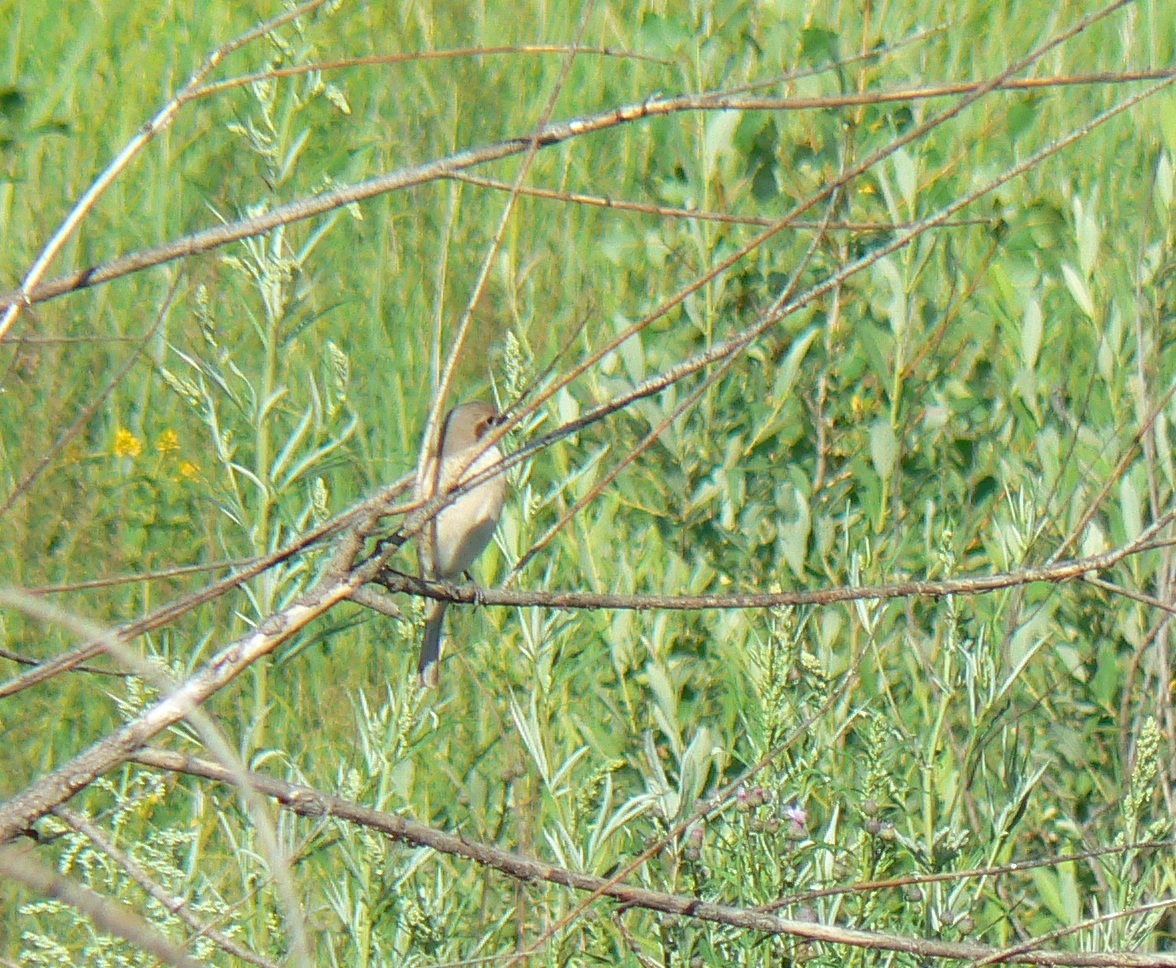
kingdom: Animalia
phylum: Chordata
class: Aves
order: Passeriformes
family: Laniidae
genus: Lanius
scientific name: Lanius collurio
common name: Red-backed shrike
